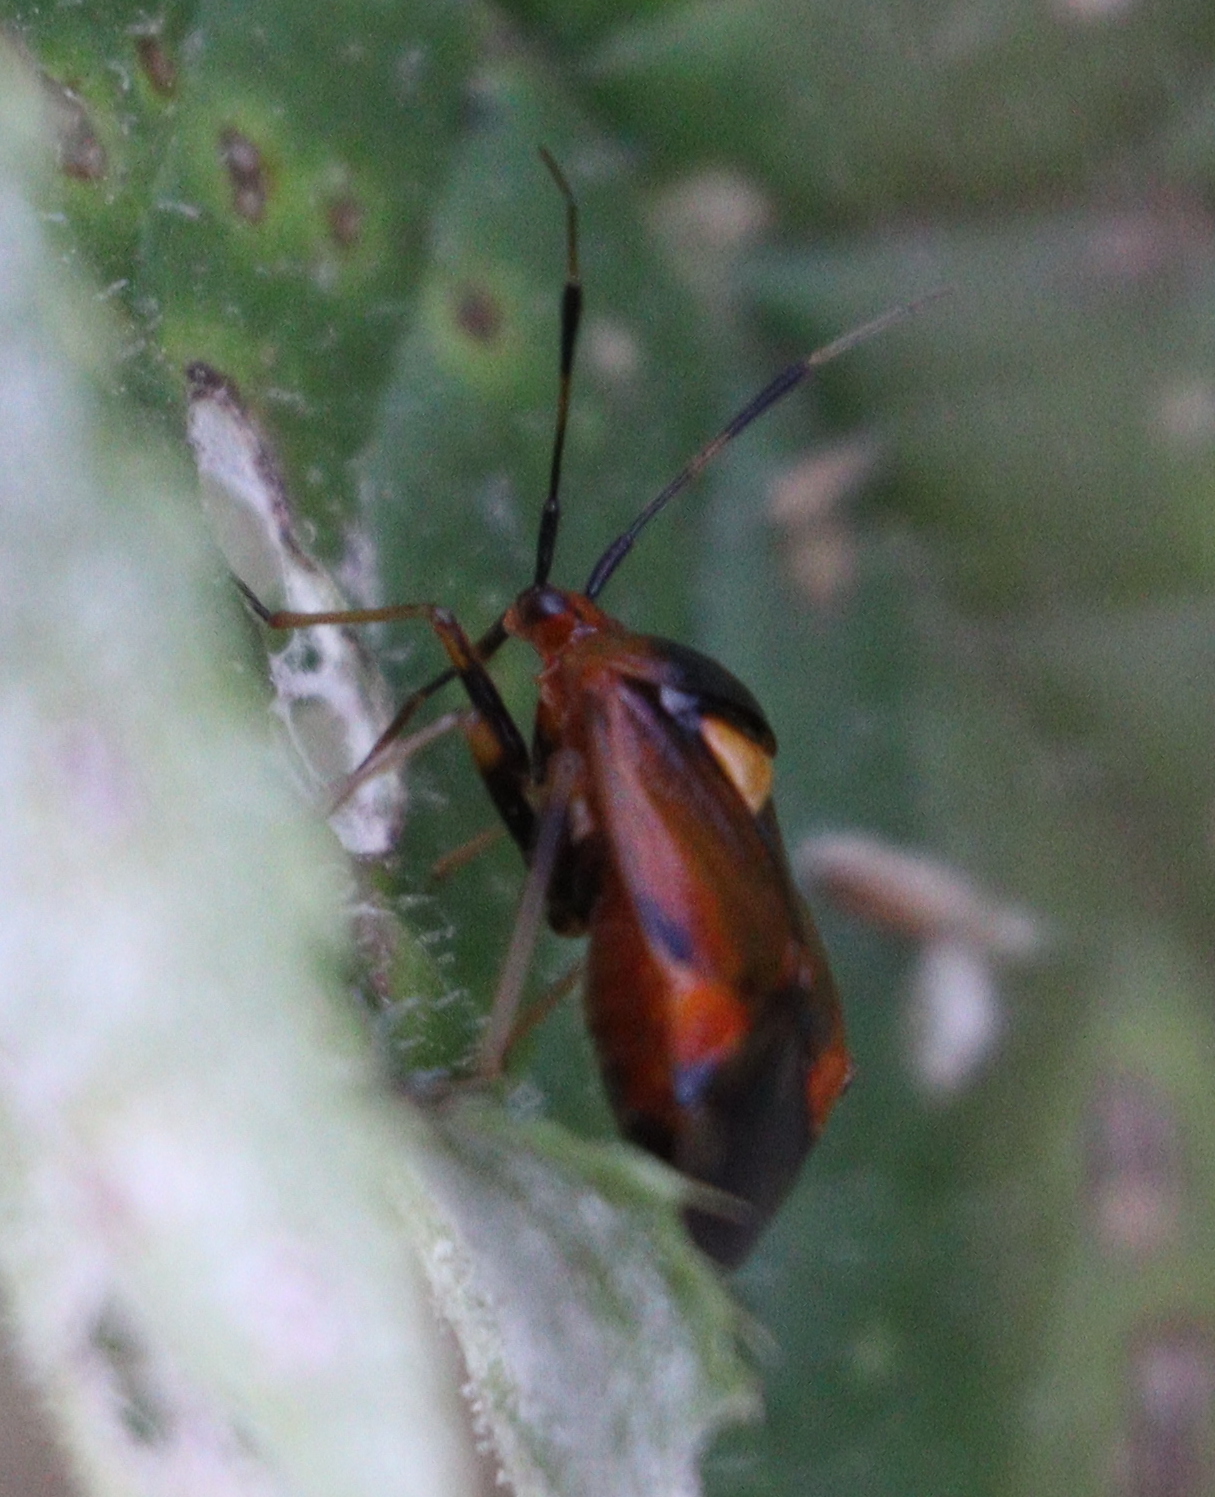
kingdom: Animalia
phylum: Arthropoda
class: Insecta
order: Hemiptera
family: Miridae
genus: Deraeocoris
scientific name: Deraeocoris ruber
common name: Plant bug
